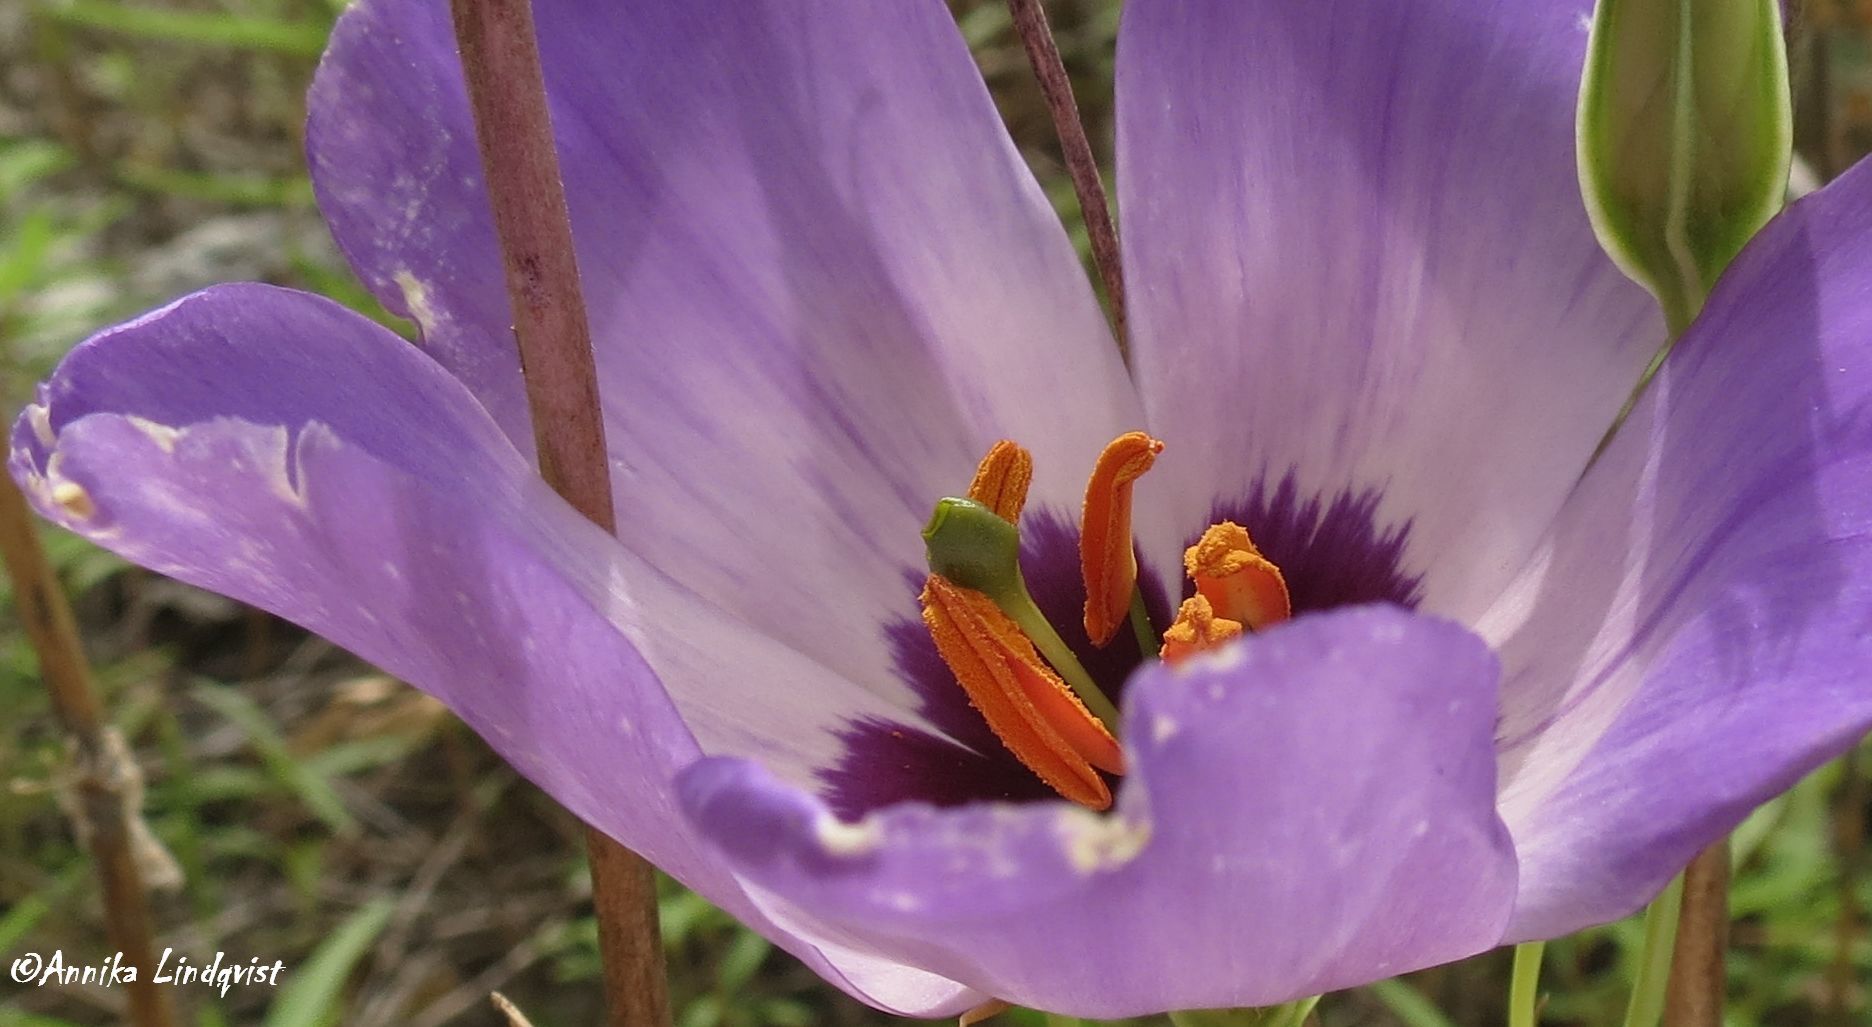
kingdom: Plantae
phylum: Tracheophyta
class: Magnoliopsida
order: Gentianales
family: Gentianaceae
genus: Eustoma
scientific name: Eustoma russellianum
